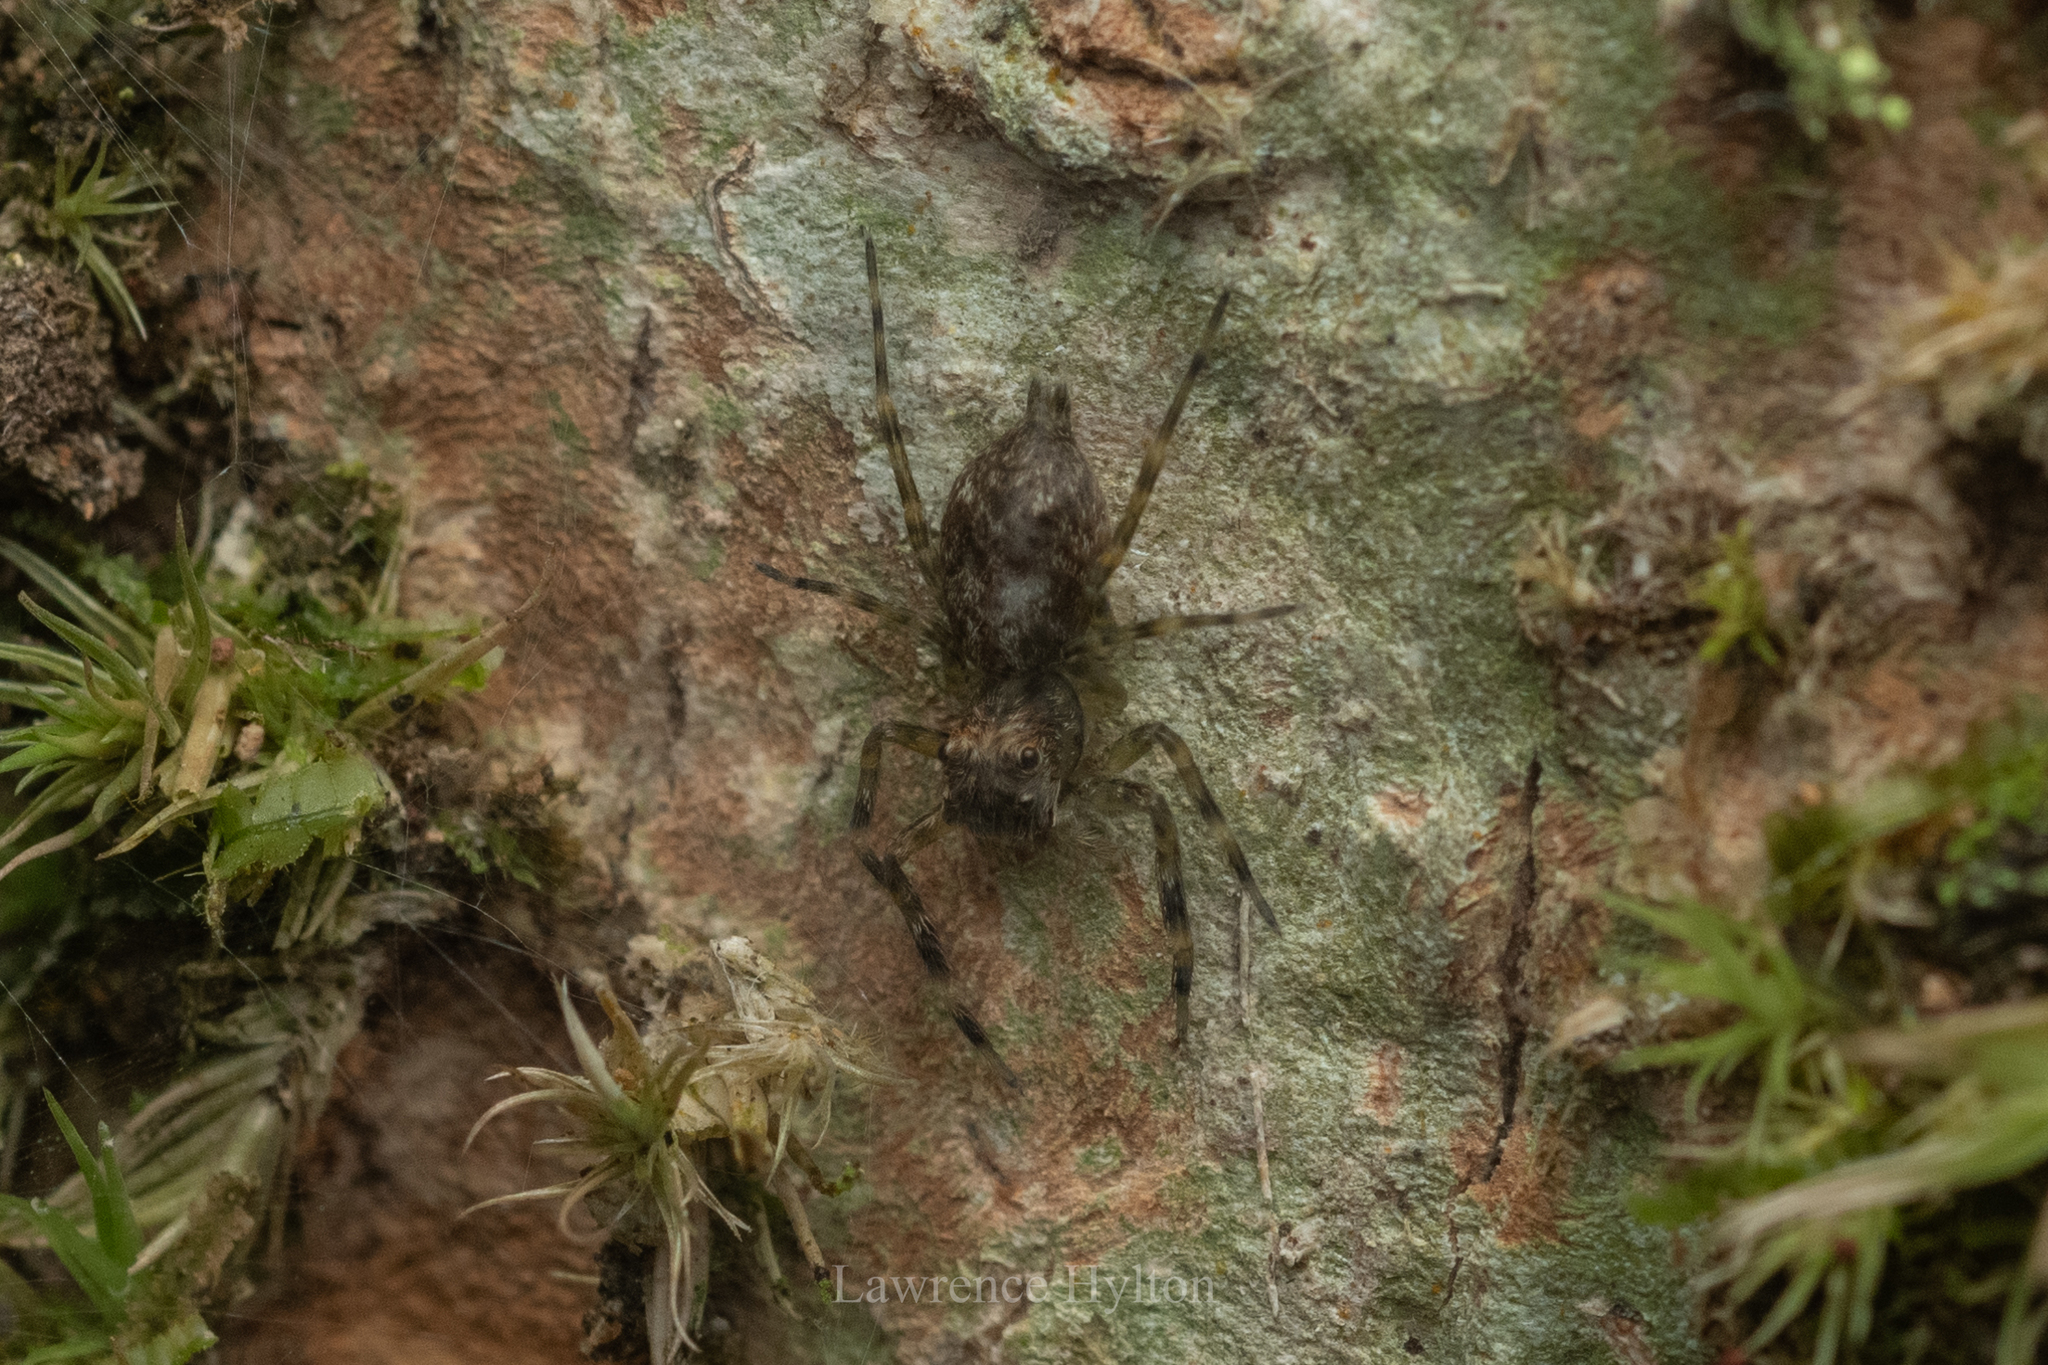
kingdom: Animalia
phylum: Arthropoda
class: Arachnida
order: Araneae
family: Salticidae
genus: Spartaeus
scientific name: Spartaeus zhangi
